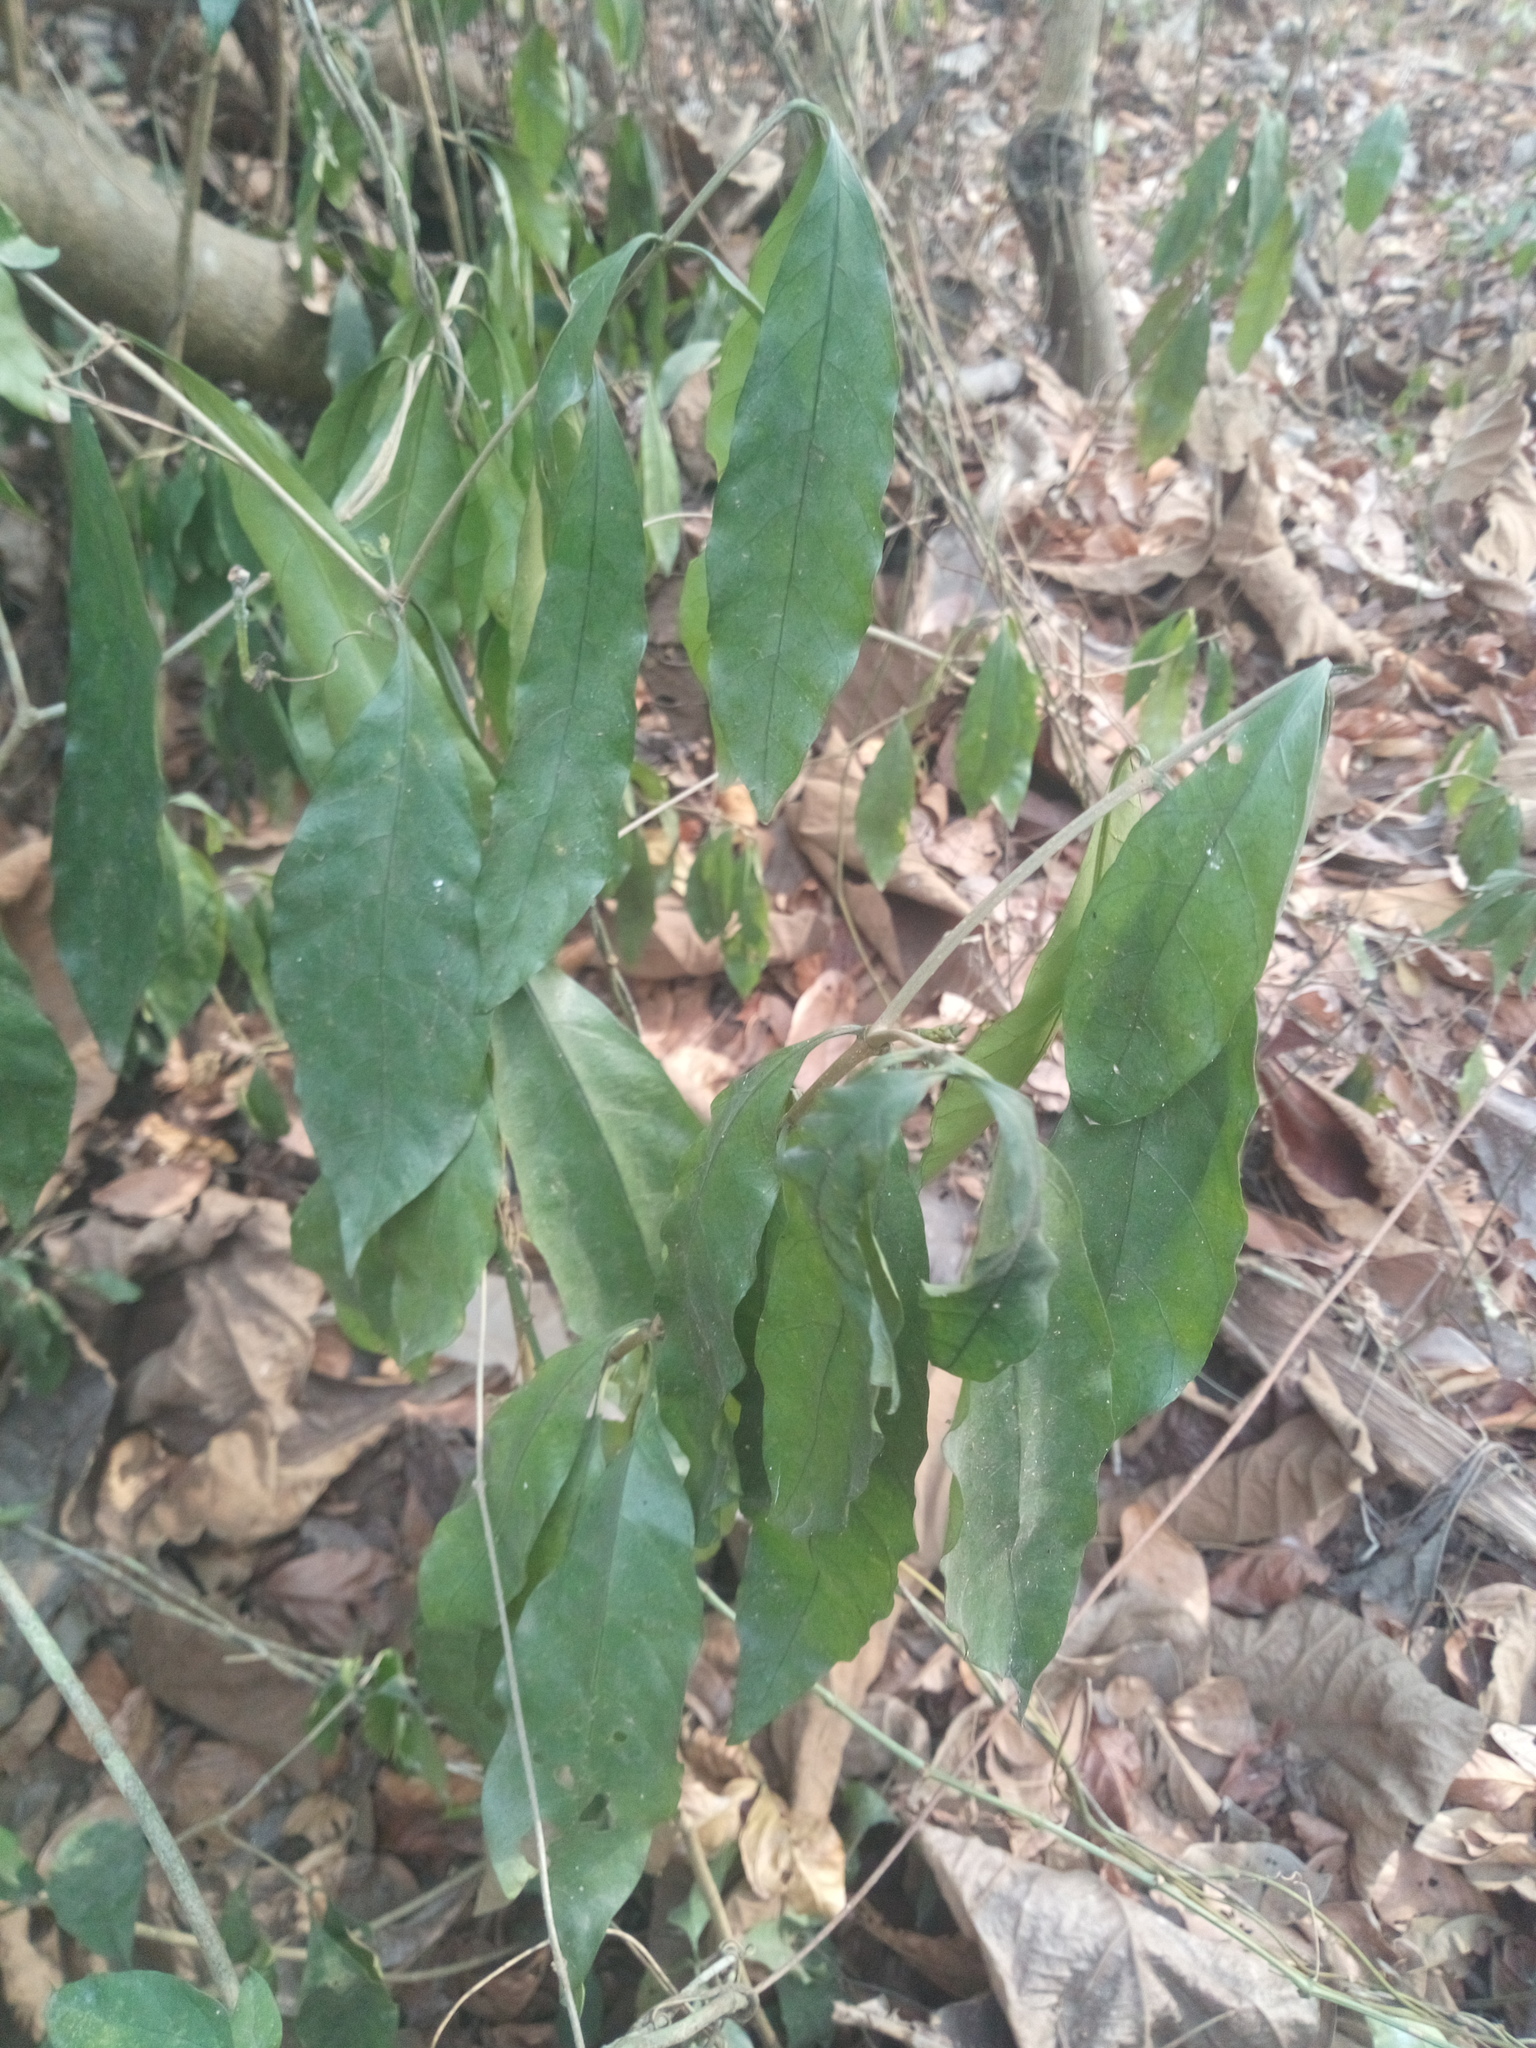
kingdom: Plantae
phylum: Tracheophyta
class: Magnoliopsida
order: Gentianales
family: Rubiaceae
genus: Psychotria
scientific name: Psychotria calva
